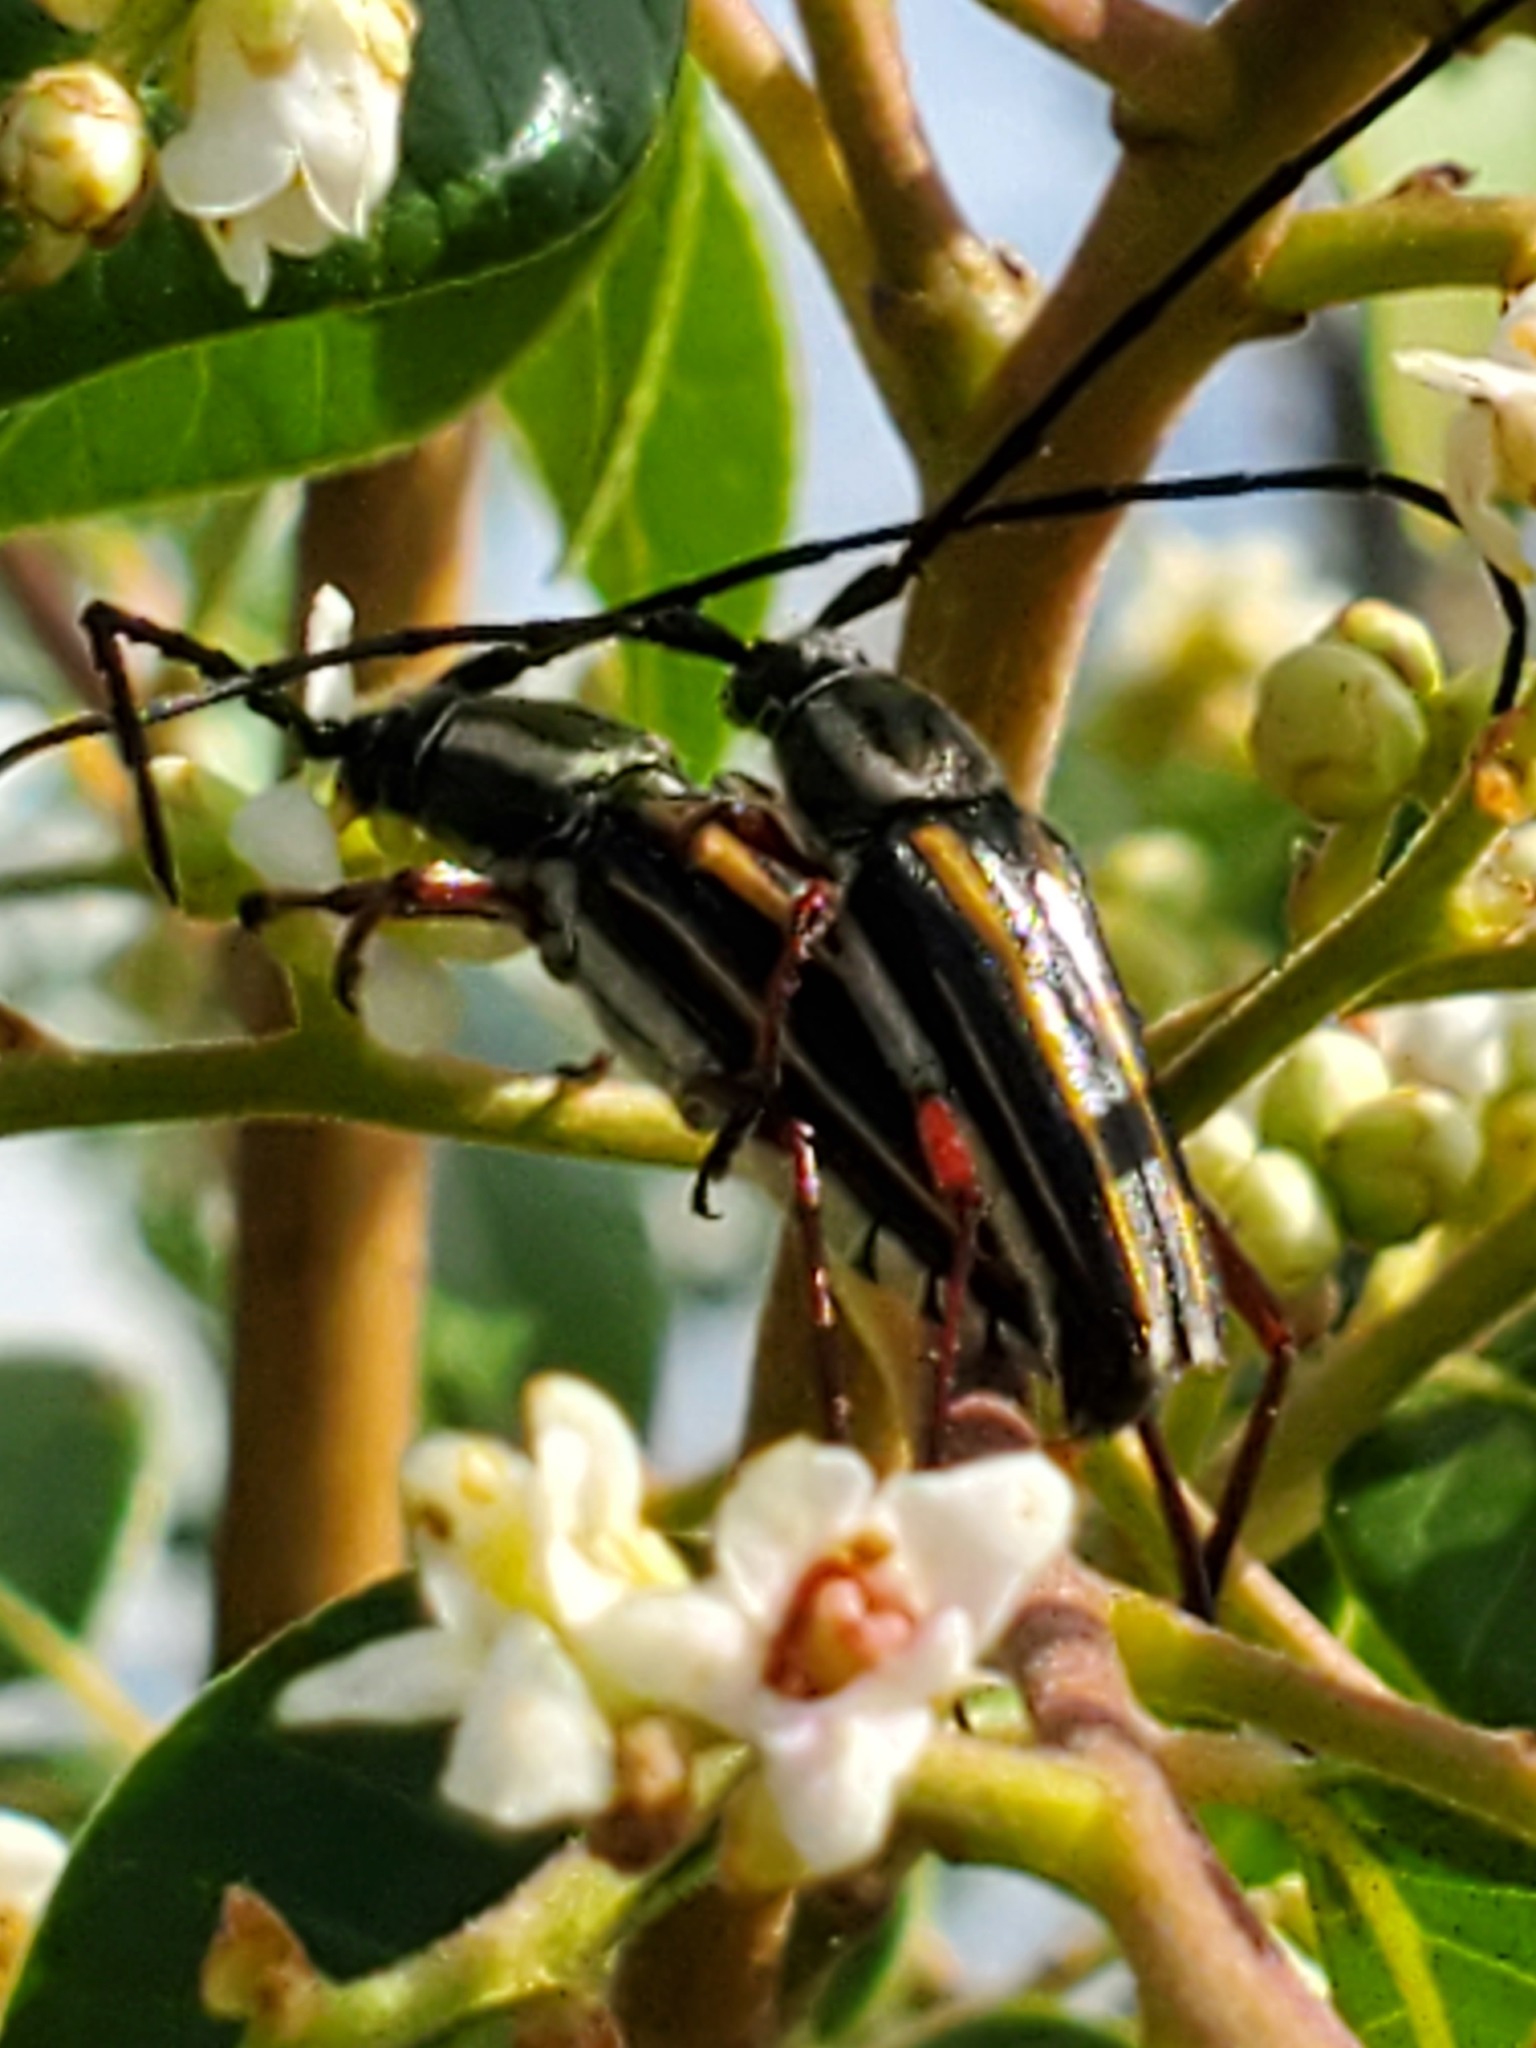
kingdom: Animalia
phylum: Arthropoda
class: Insecta
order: Coleoptera
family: Cerambycidae
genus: Sphaenothecus
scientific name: Sphaenothecus bilineatus
